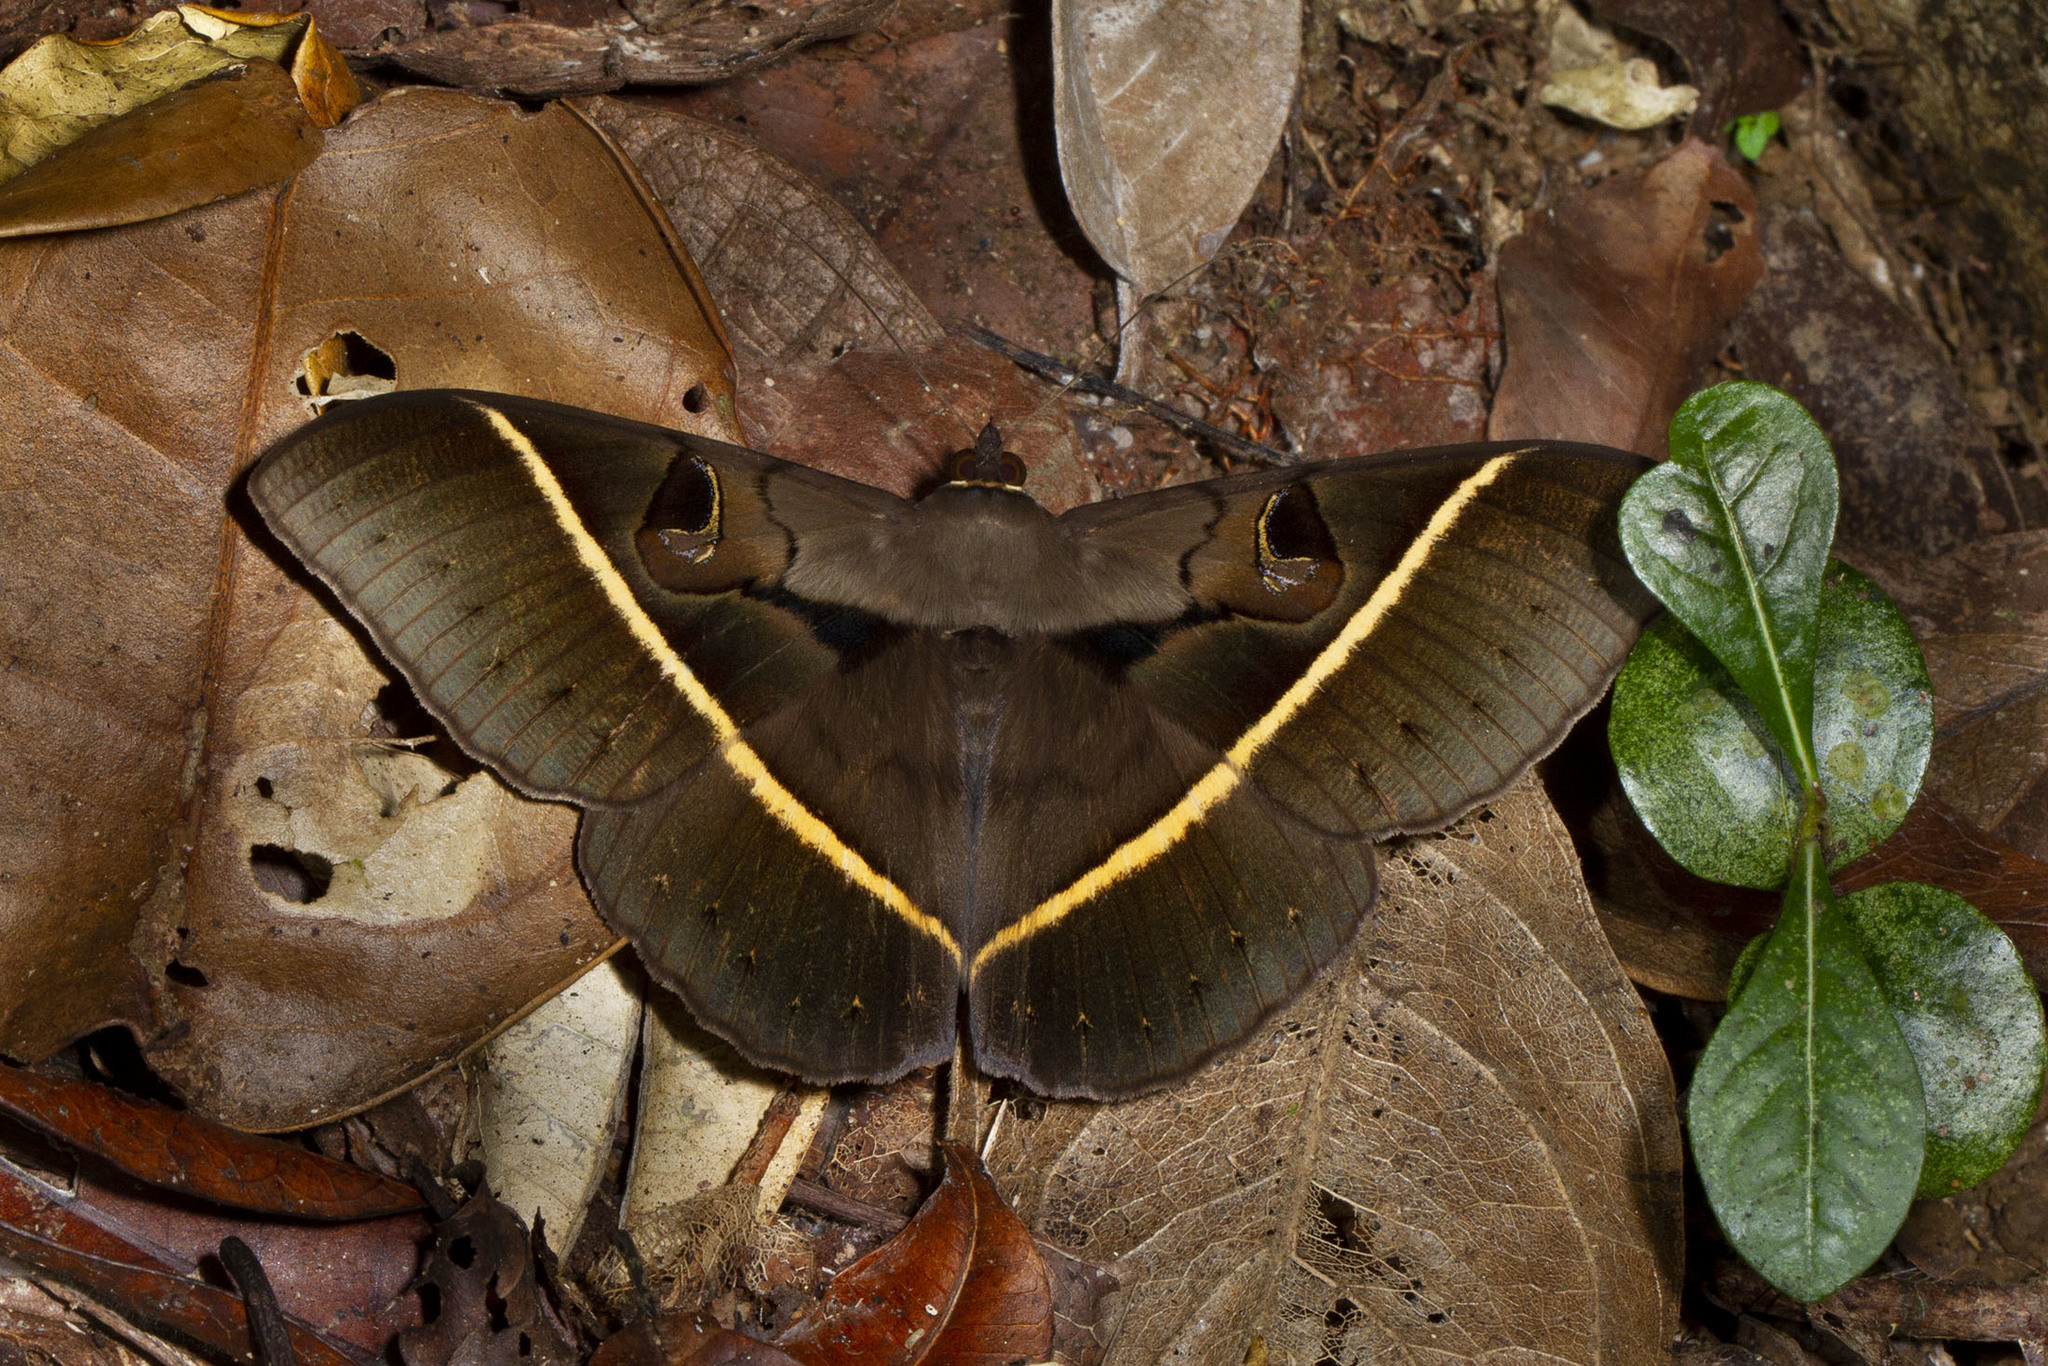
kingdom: Animalia
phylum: Arthropoda
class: Insecta
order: Lepidoptera
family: Erebidae
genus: Cyligramma
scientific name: Cyligramma joa
